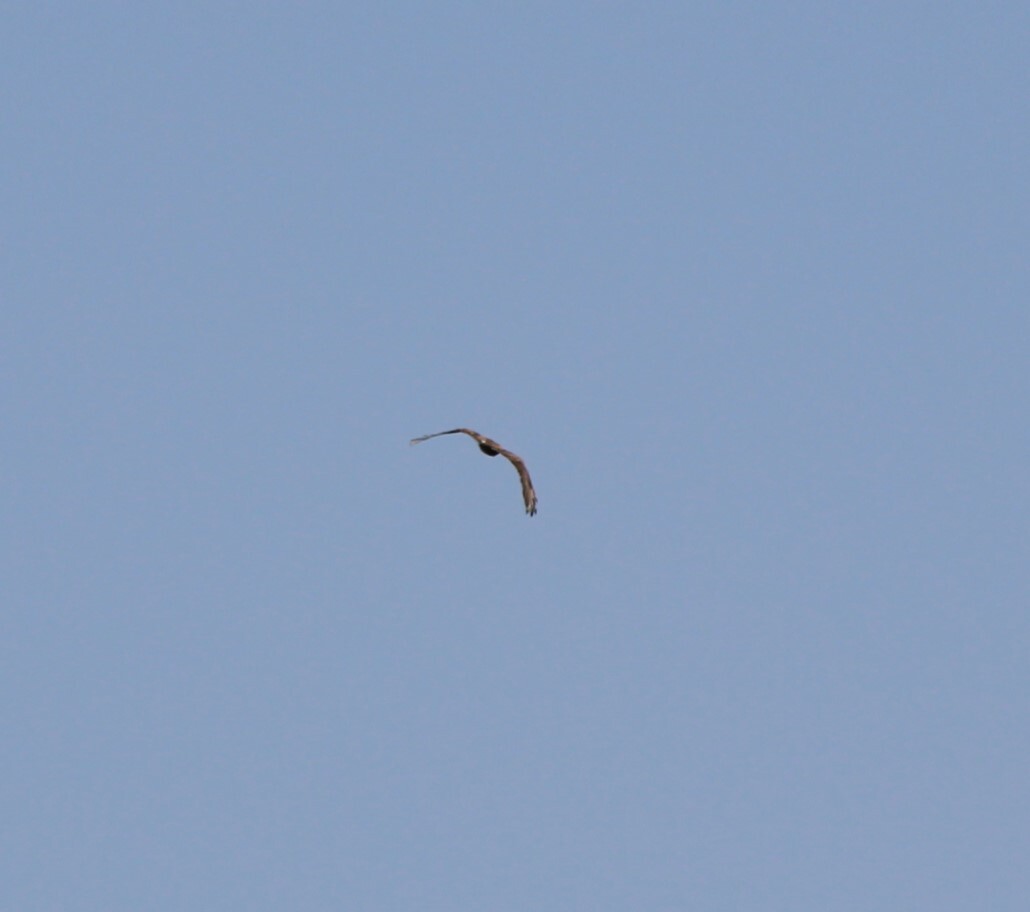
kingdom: Animalia
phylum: Chordata
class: Aves
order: Accipitriformes
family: Accipitridae
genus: Buteo
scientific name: Buteo buteo
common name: Common buzzard
